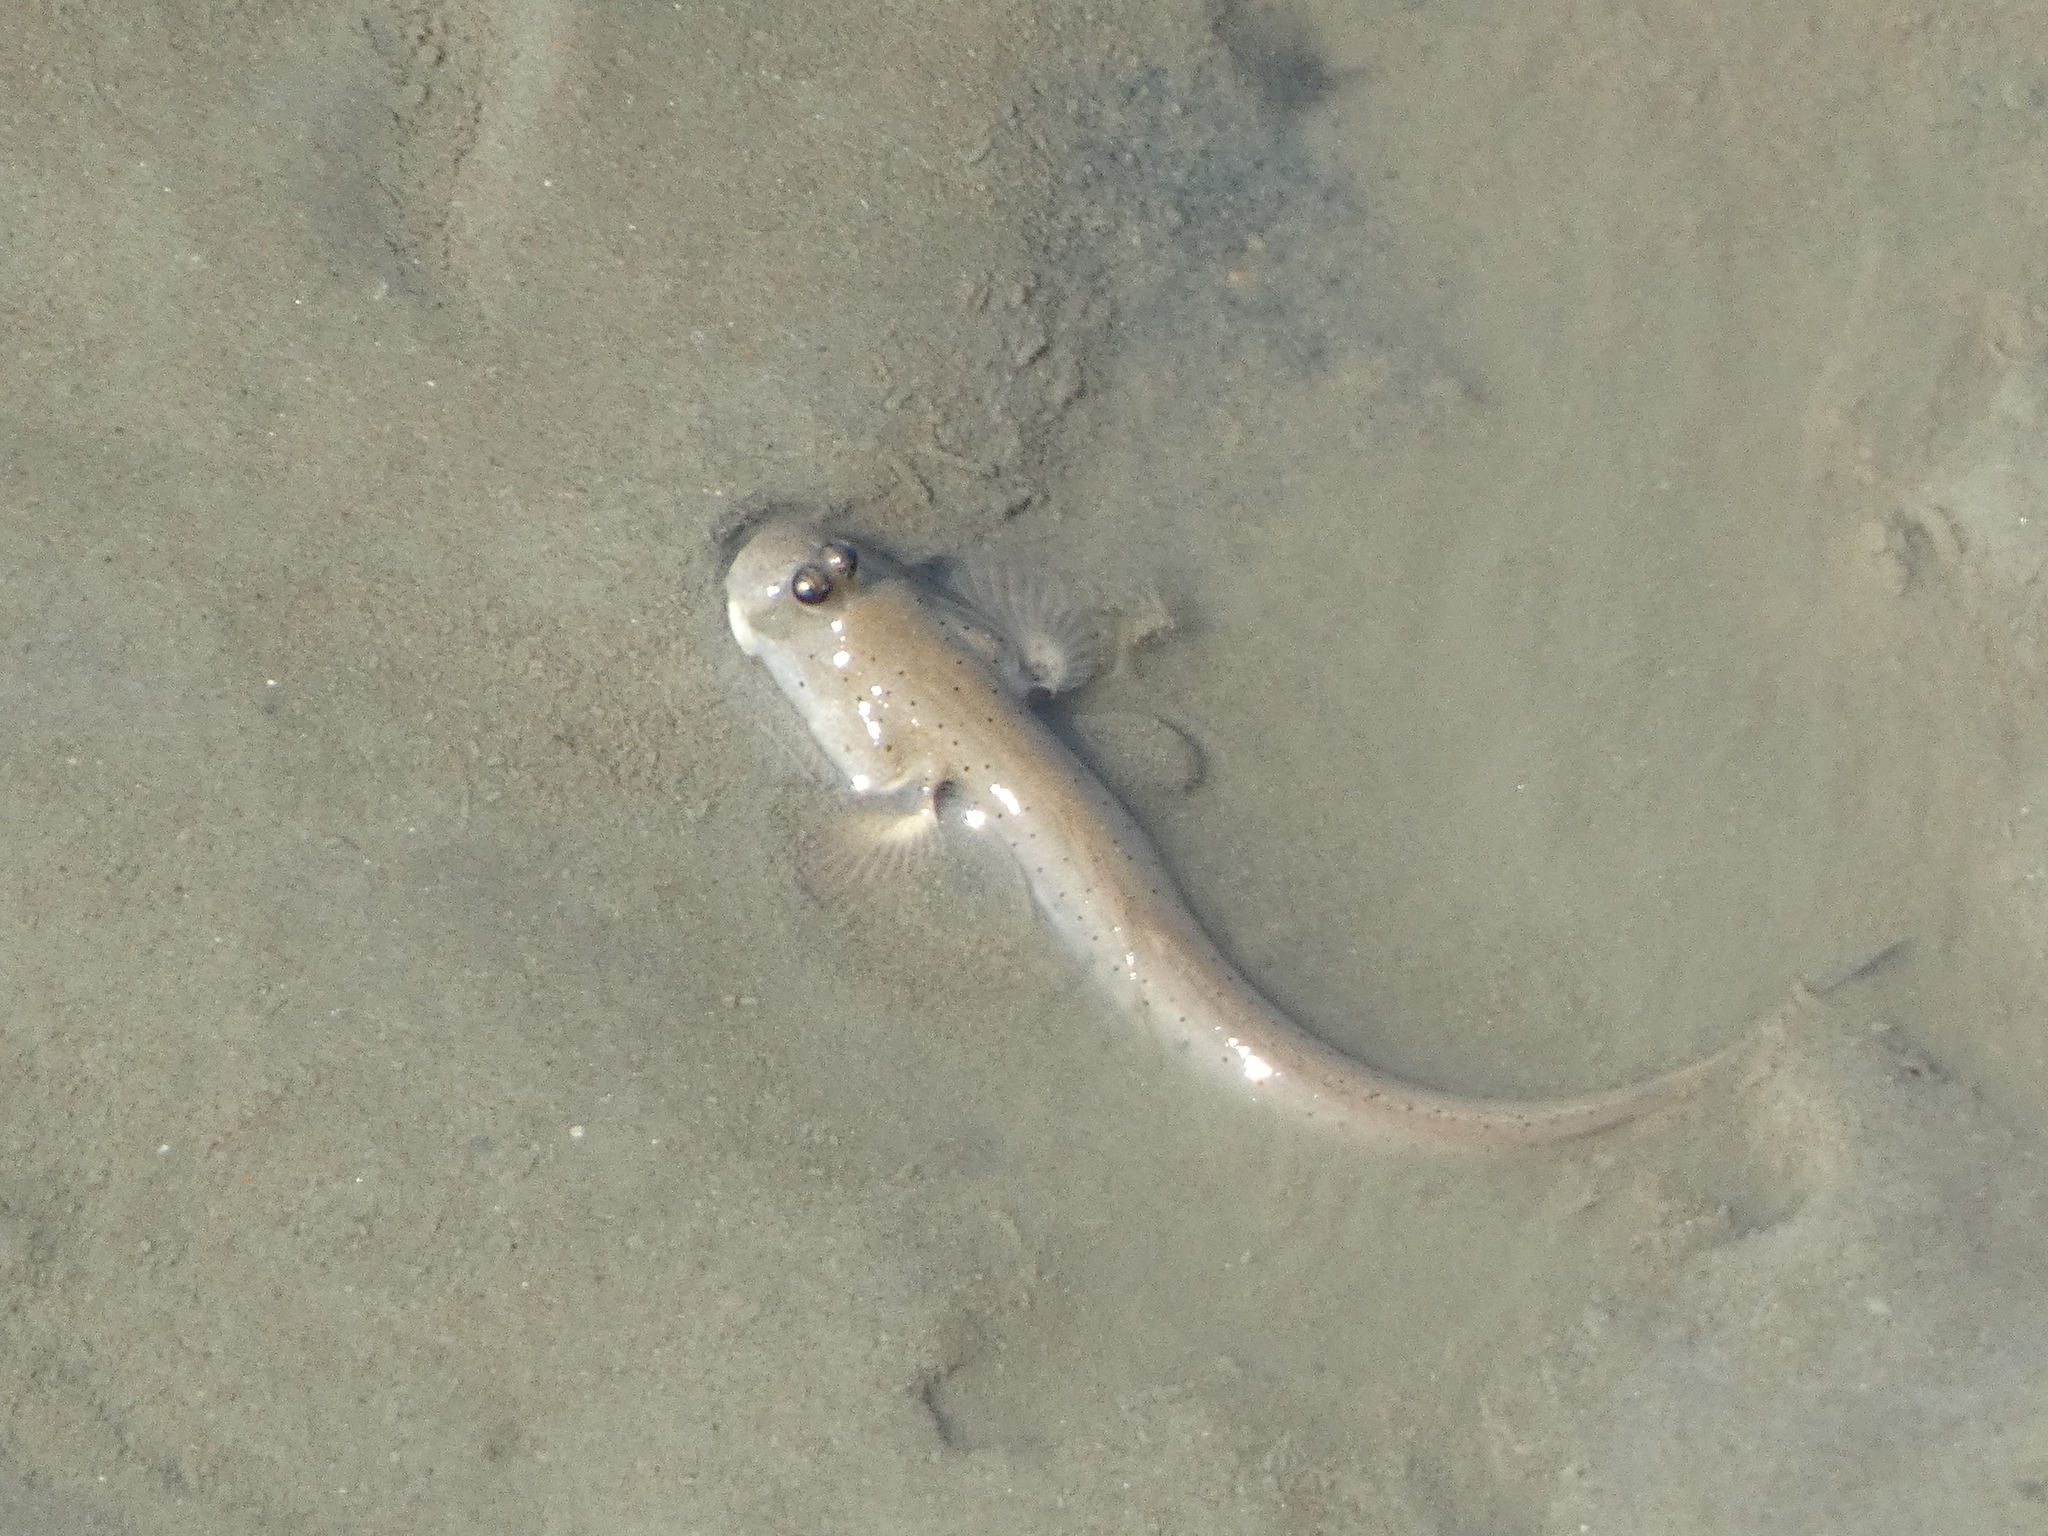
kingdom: Animalia
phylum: Chordata
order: Perciformes
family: Gobiidae
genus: Scartelaos
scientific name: Scartelaos histophorus
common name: Walking goby
